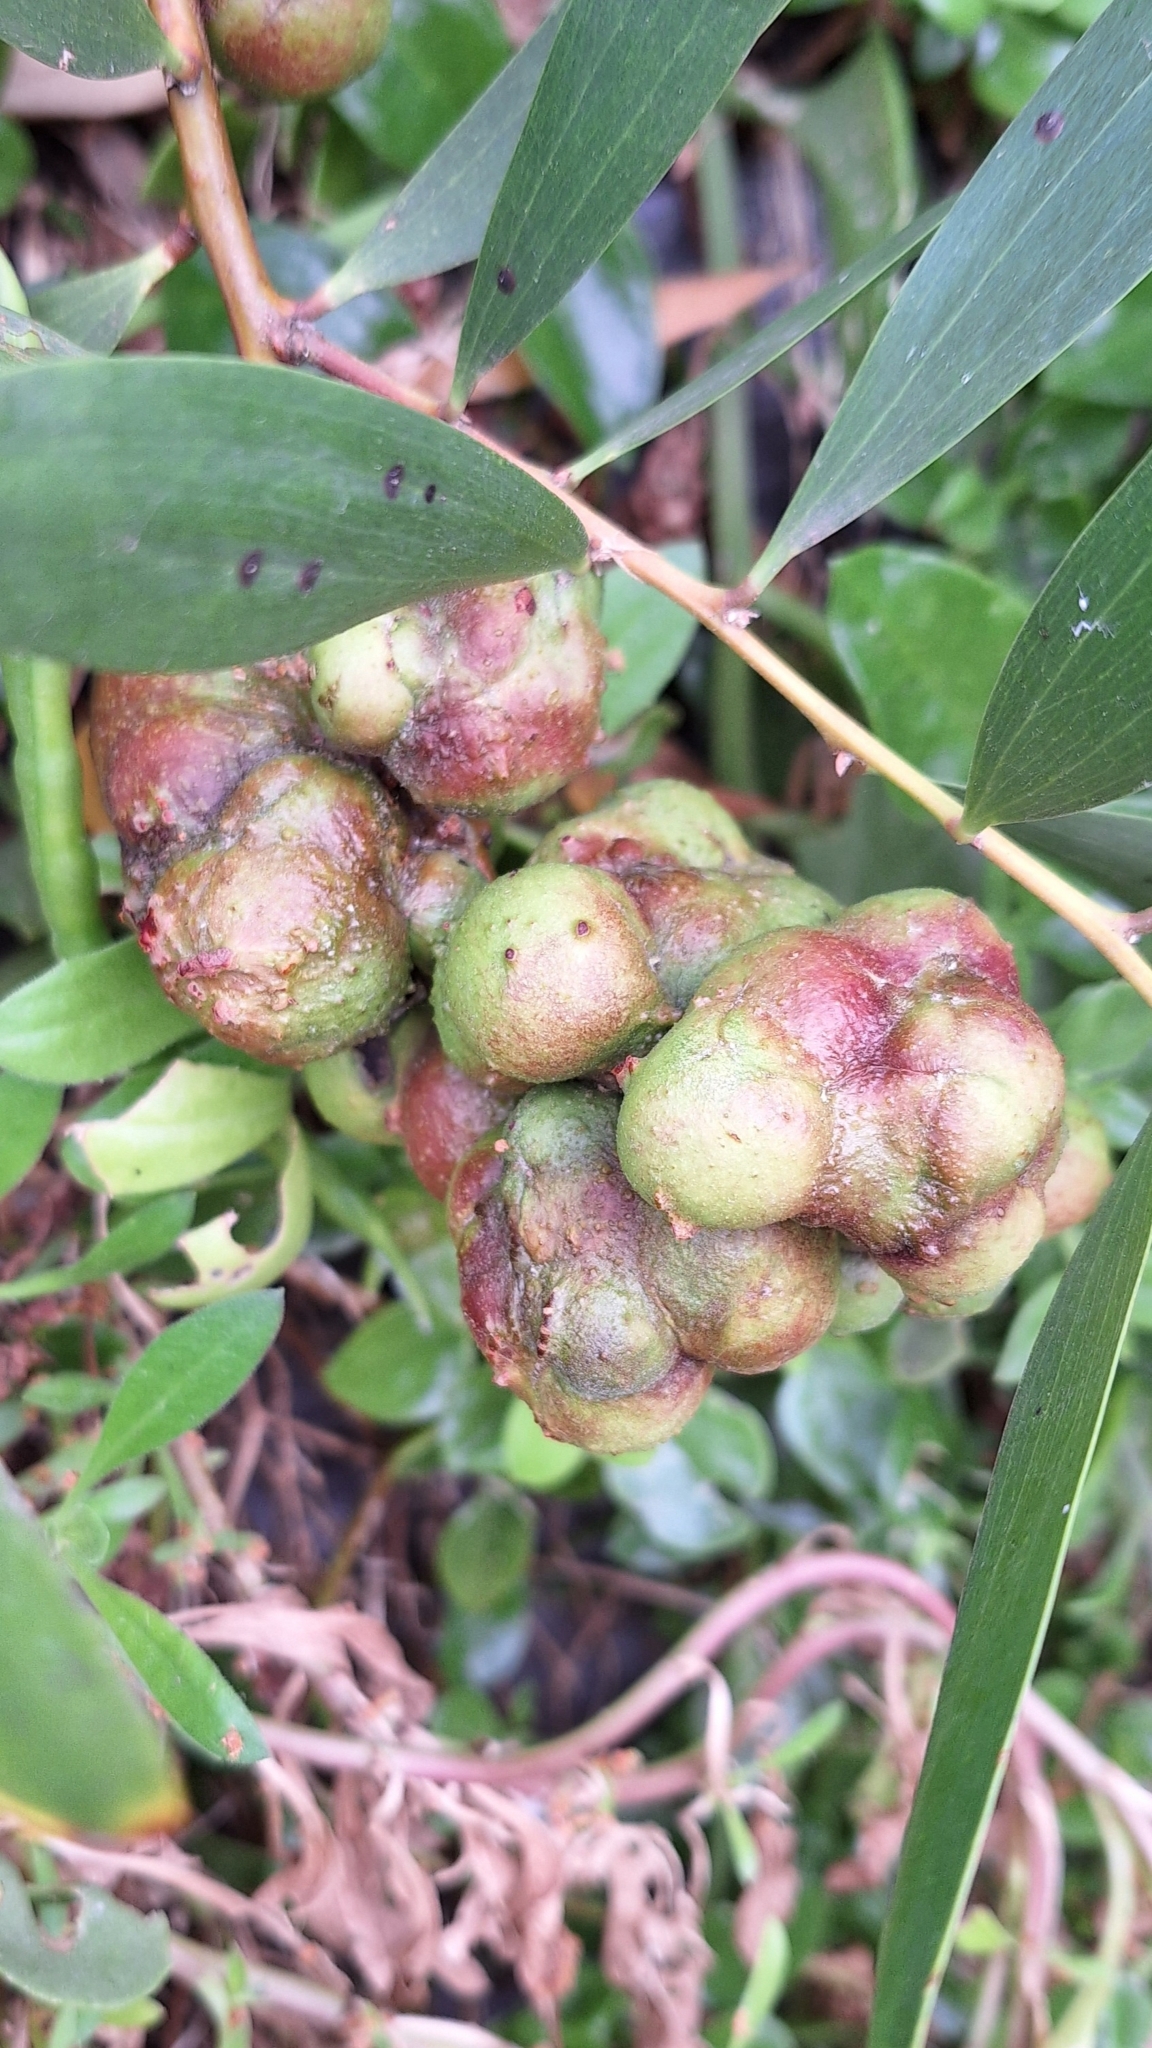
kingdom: Animalia
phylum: Arthropoda
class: Insecta
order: Hymenoptera
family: Pteromalidae
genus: Trichilogaster
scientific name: Trichilogaster acaciaelongifoliae
